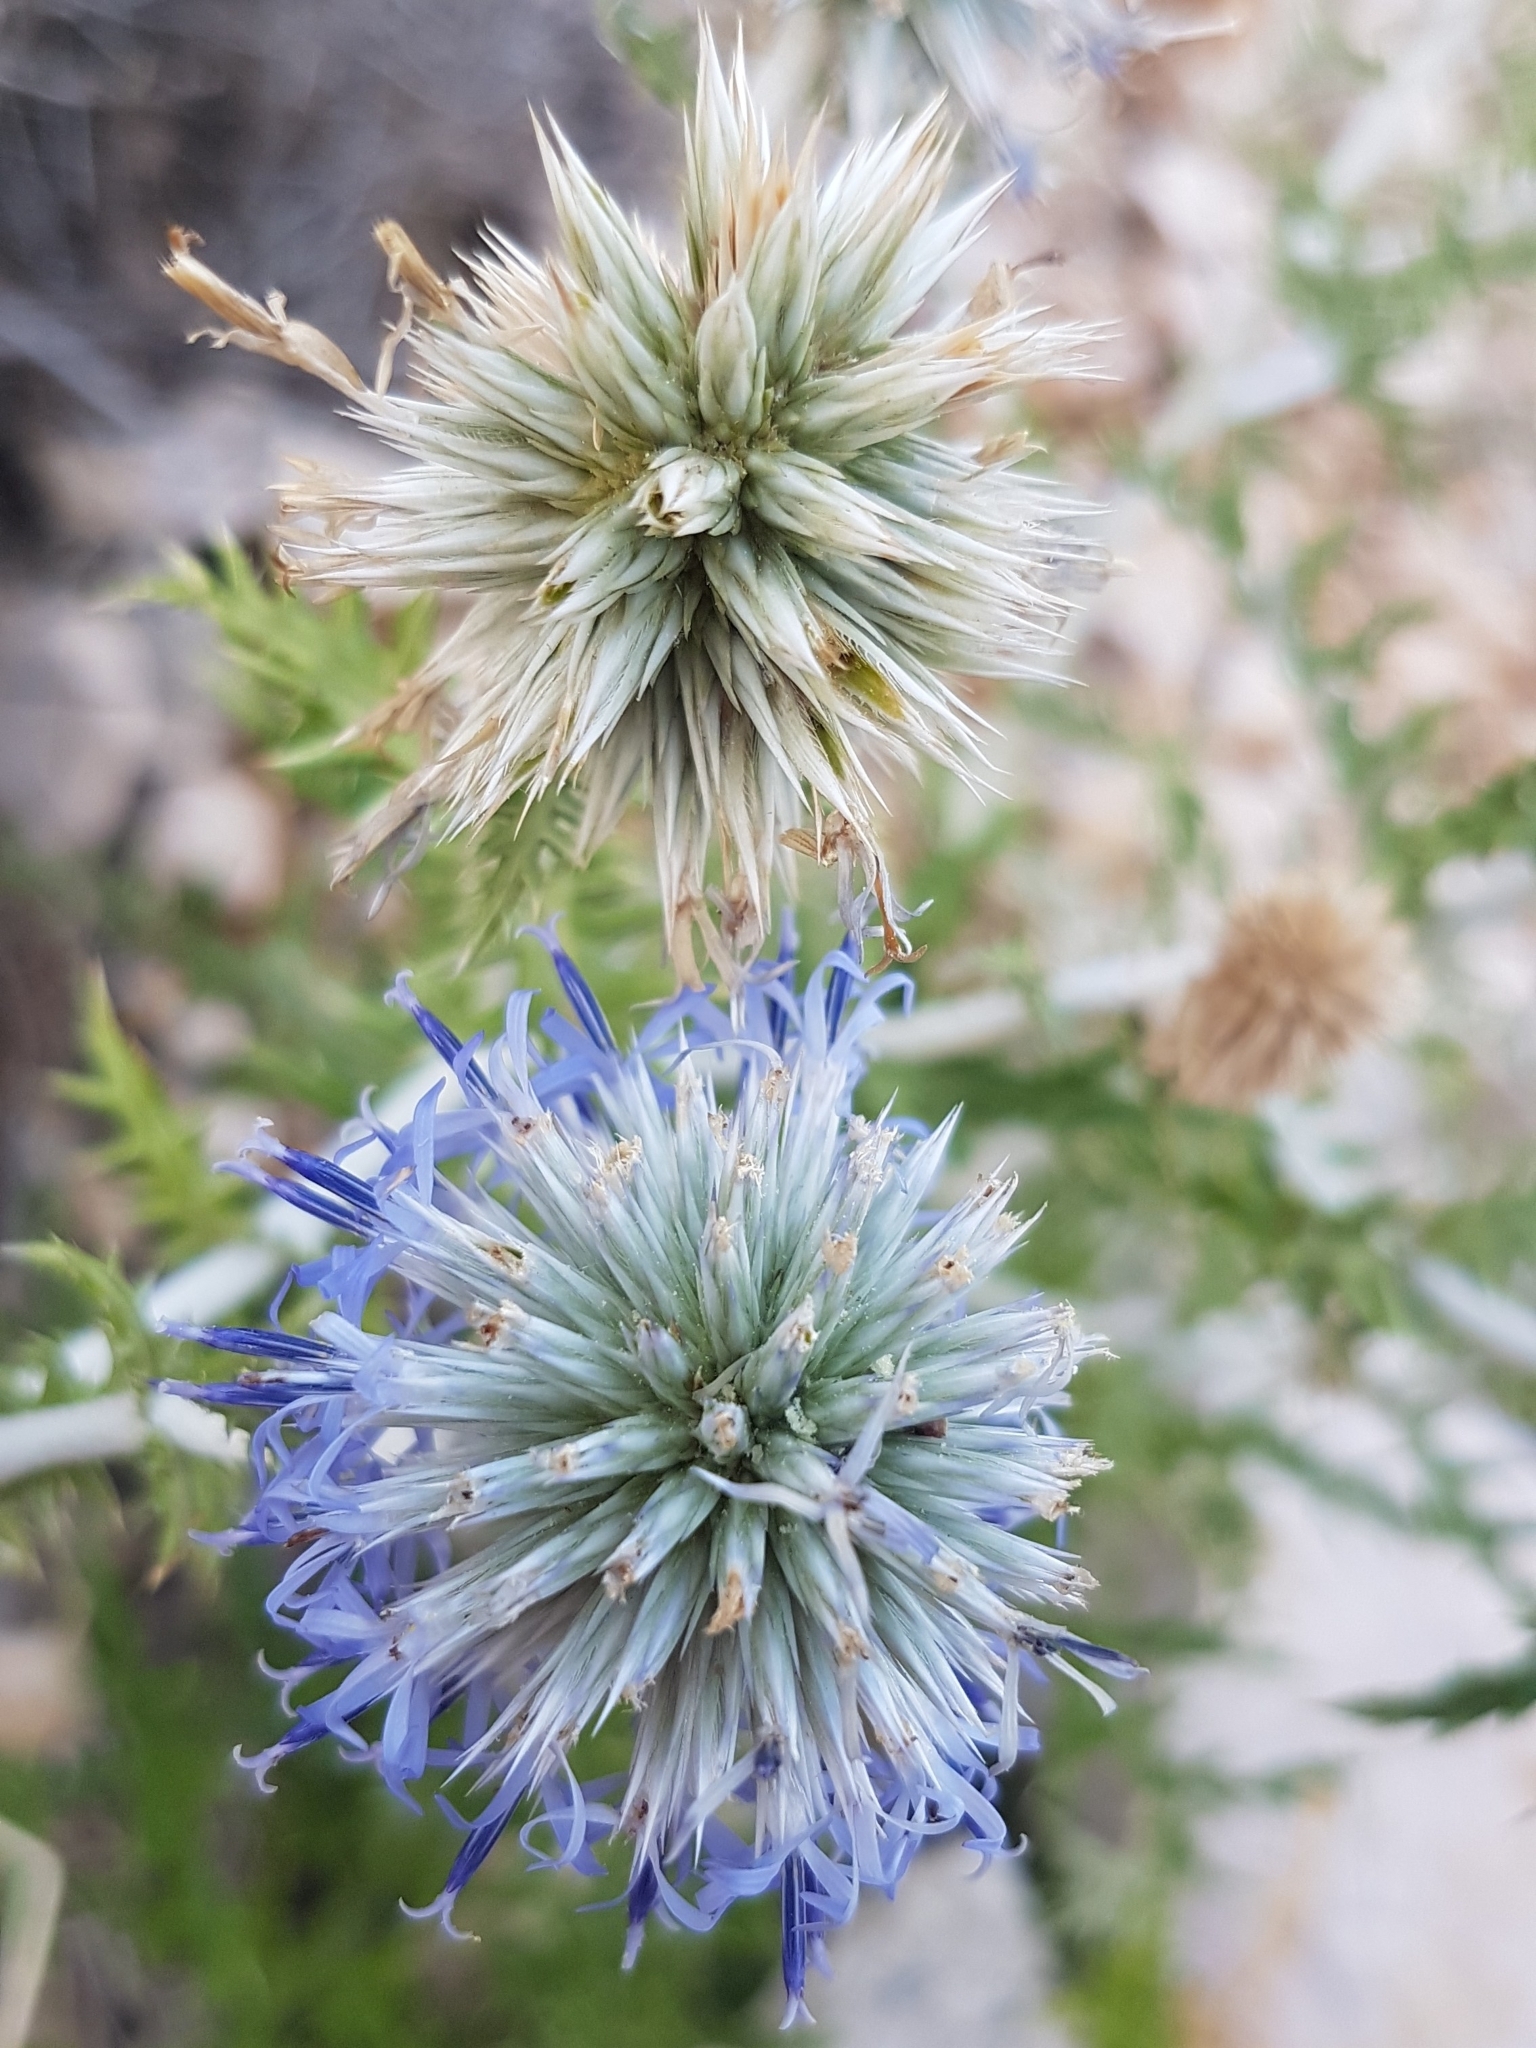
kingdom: Plantae
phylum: Tracheophyta
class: Magnoliopsida
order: Asterales
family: Asteraceae
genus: Echinops
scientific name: Echinops ritro
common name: Globe thistle
